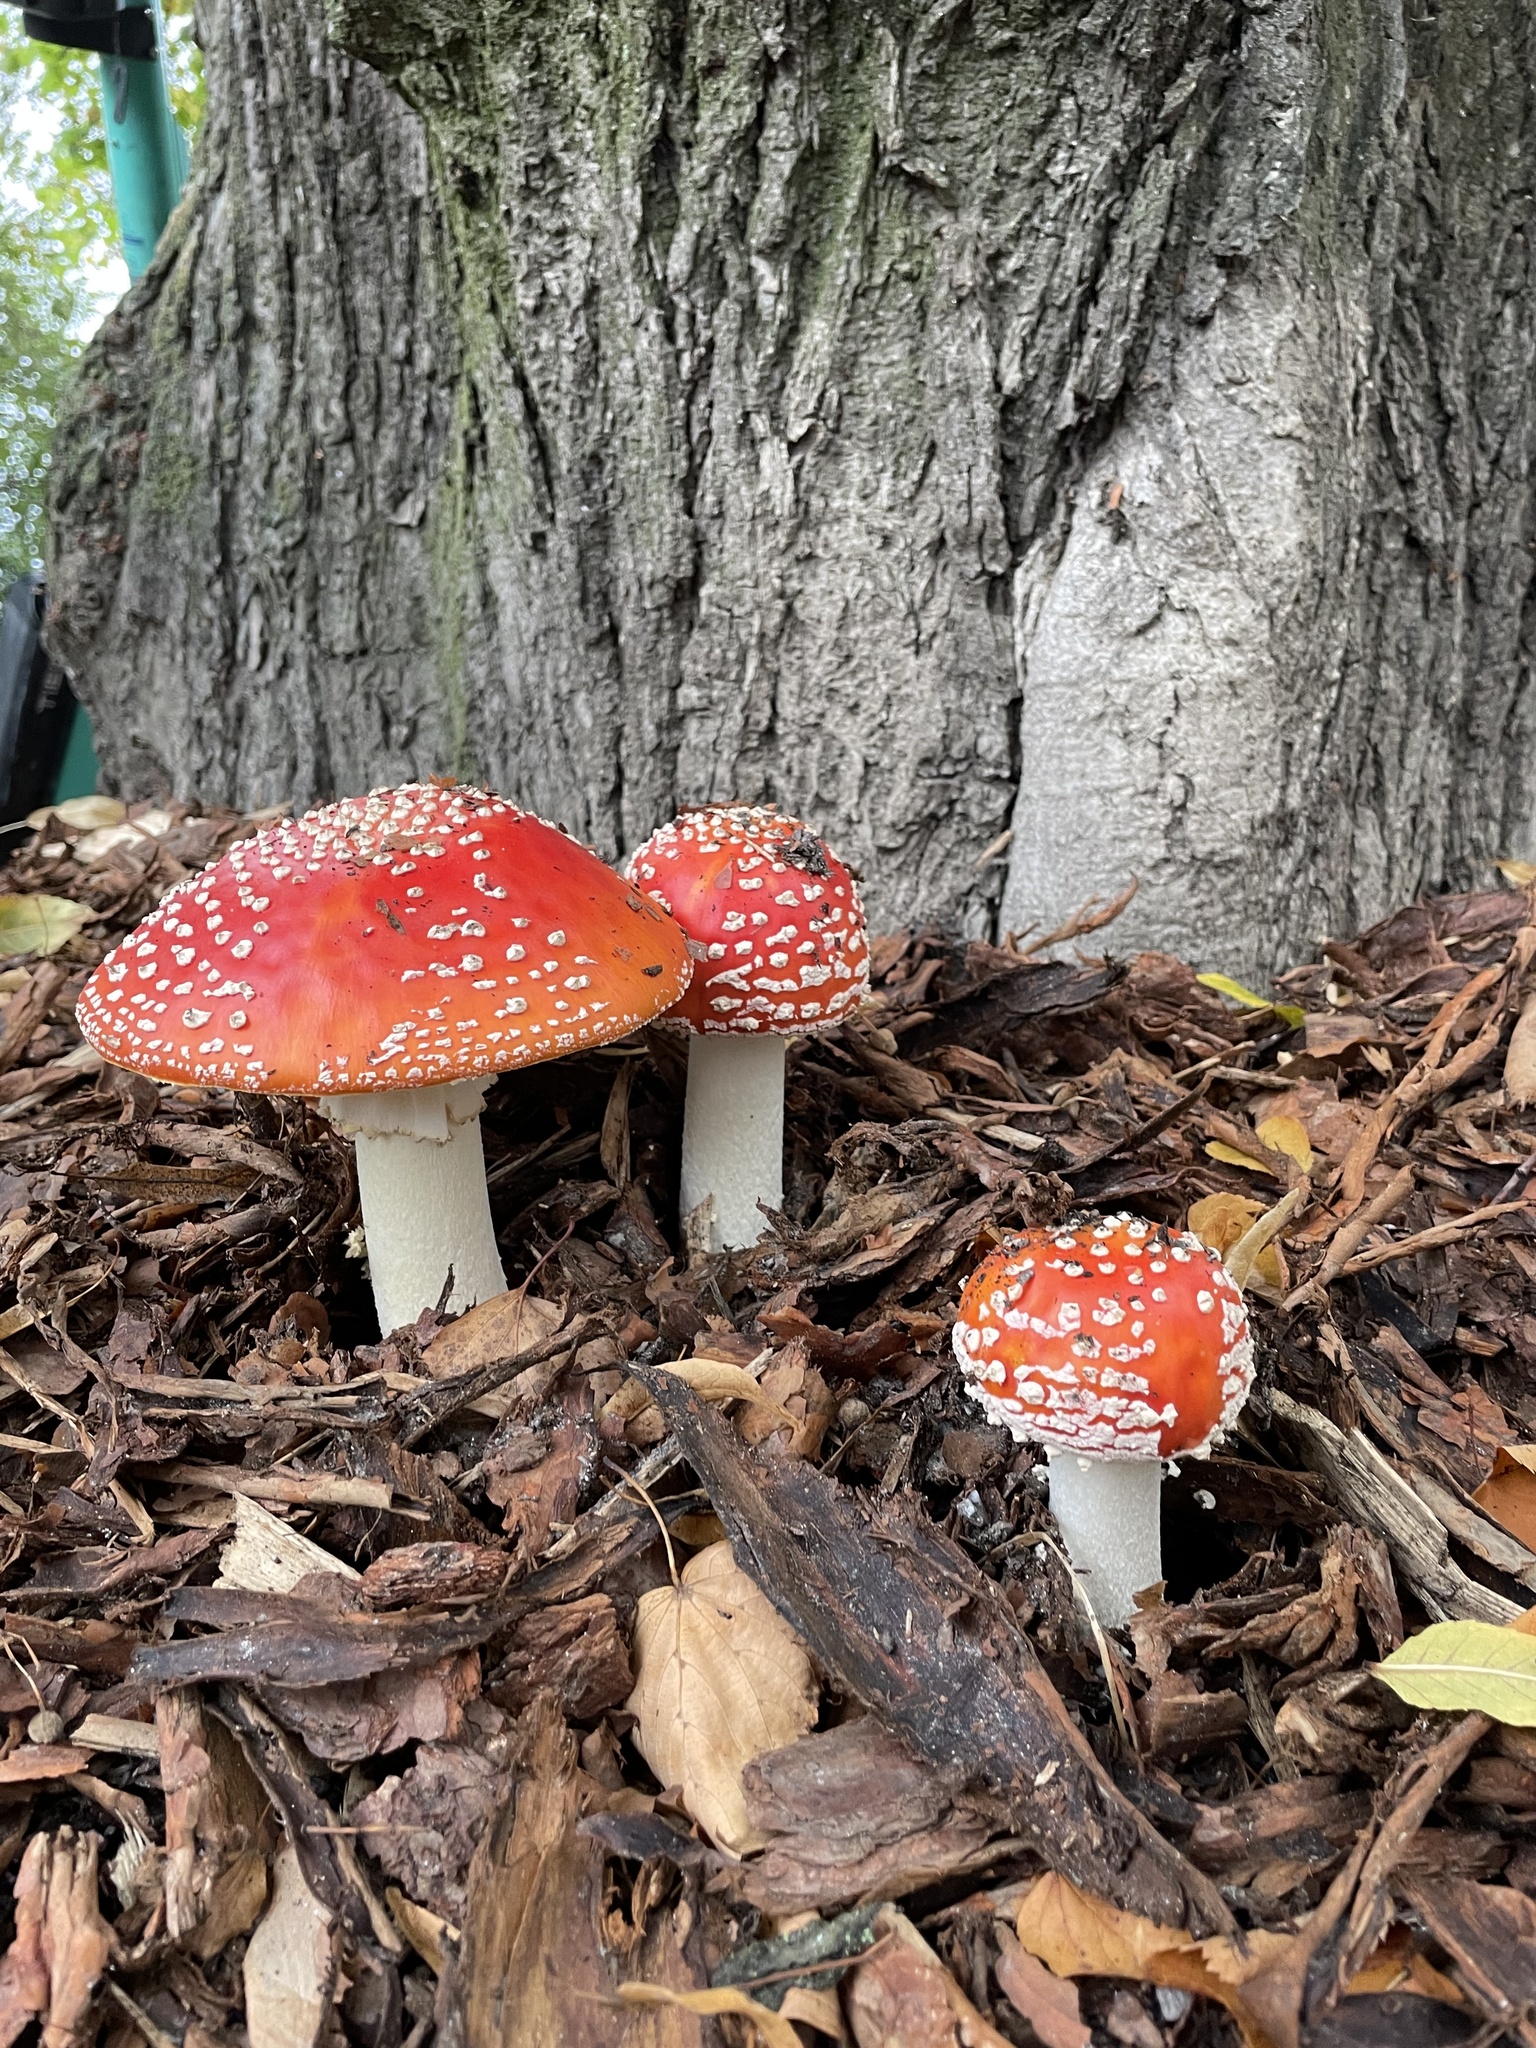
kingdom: Fungi
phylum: Basidiomycota
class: Agaricomycetes
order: Agaricales
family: Amanitaceae
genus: Amanita
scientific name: Amanita muscaria
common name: Fly agaric
